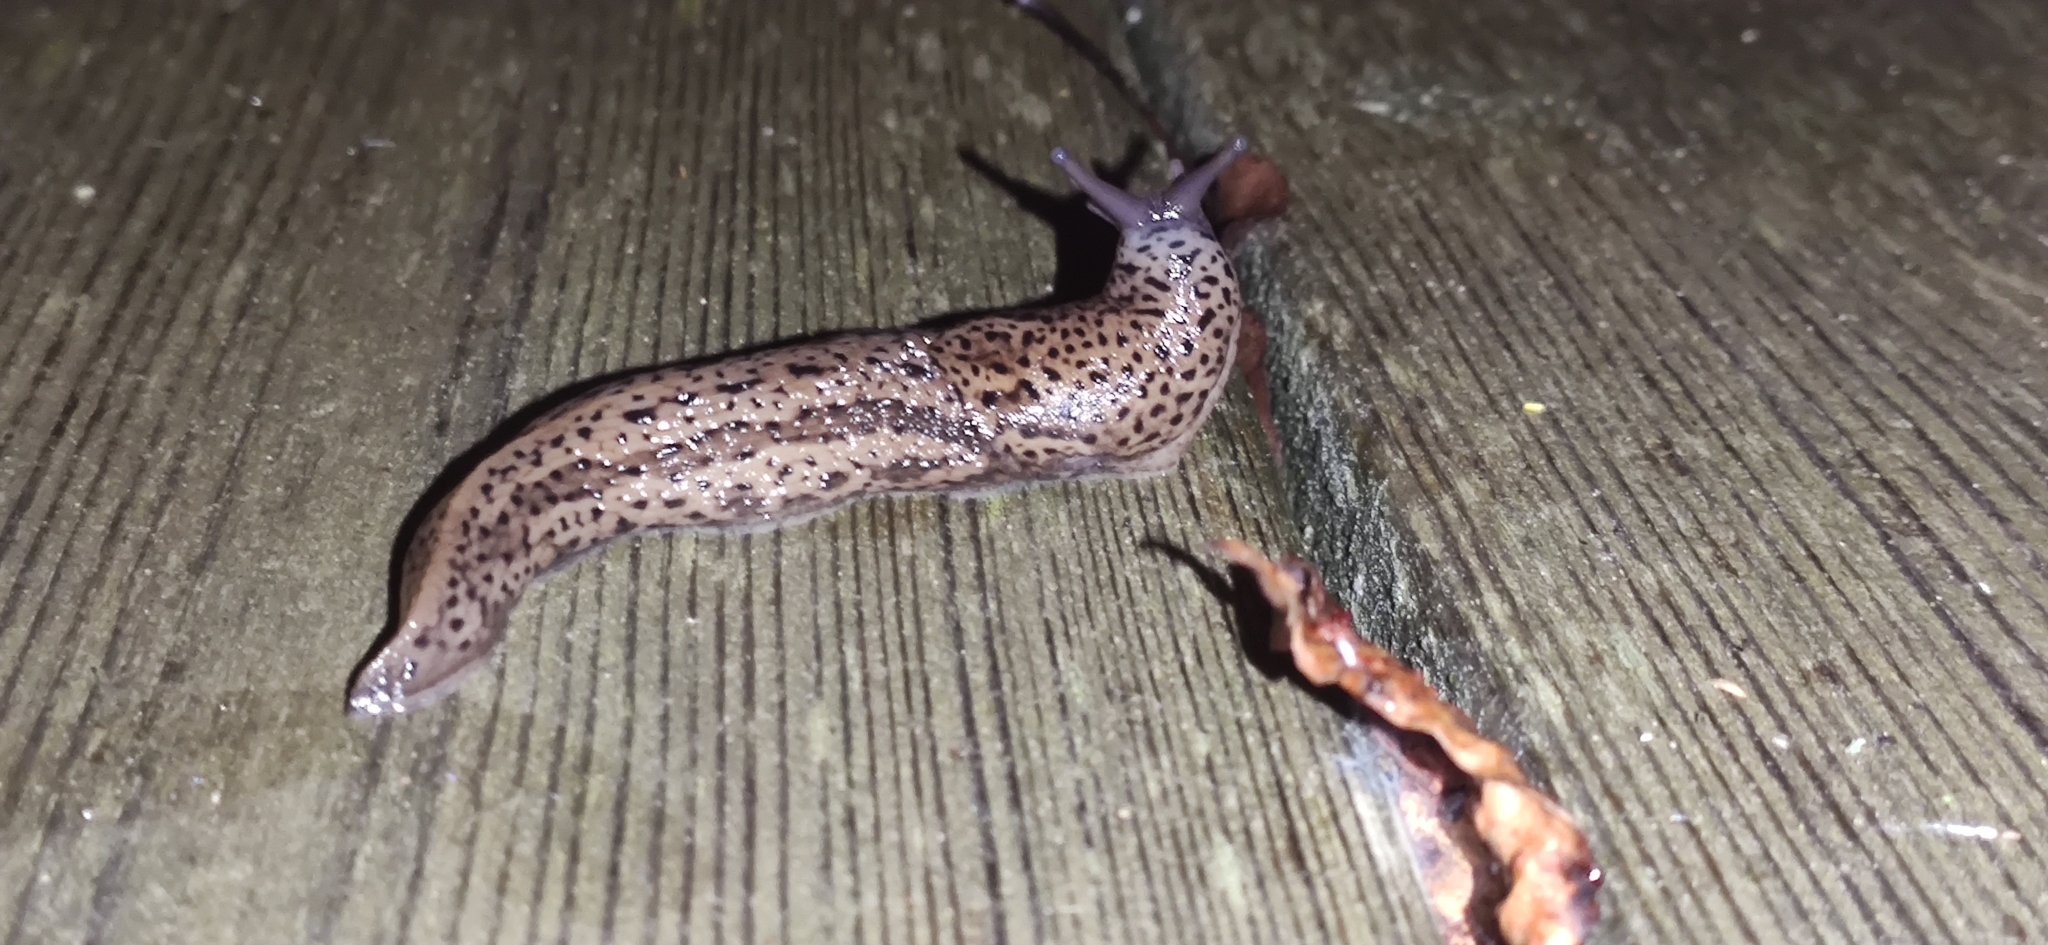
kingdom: Animalia
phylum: Mollusca
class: Gastropoda
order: Stylommatophora
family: Limacidae
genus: Limax
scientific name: Limax maximus
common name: Great grey slug
